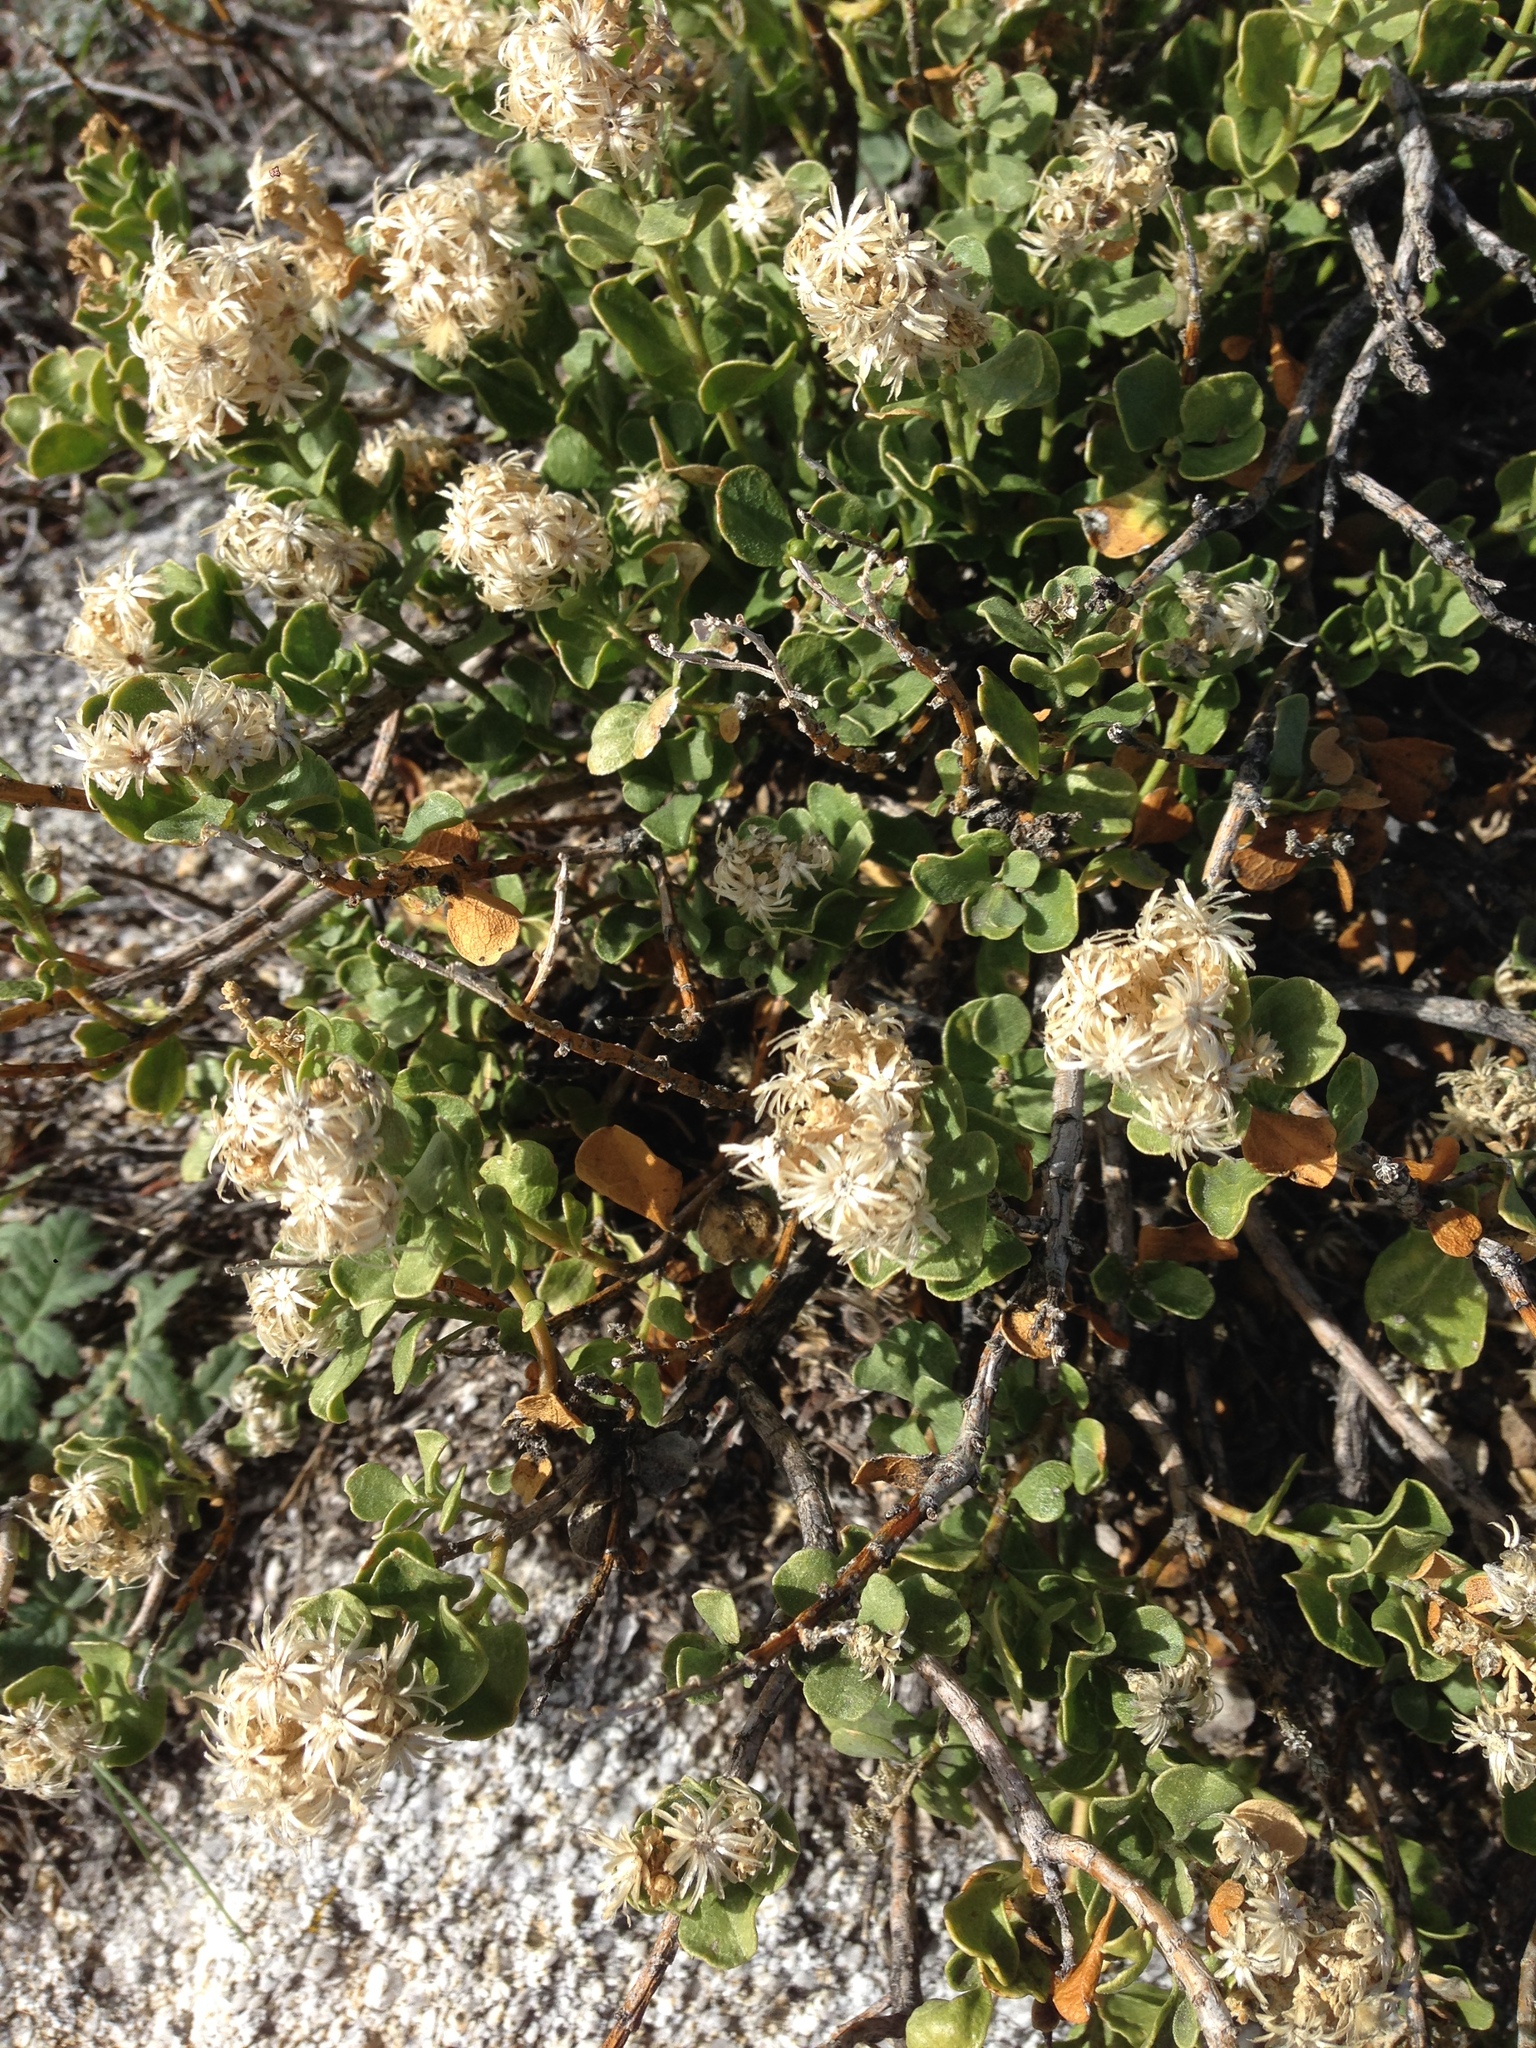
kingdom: Plantae
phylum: Tracheophyta
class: Magnoliopsida
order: Asterales
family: Asteraceae
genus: Ericameria
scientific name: Ericameria cuneata
